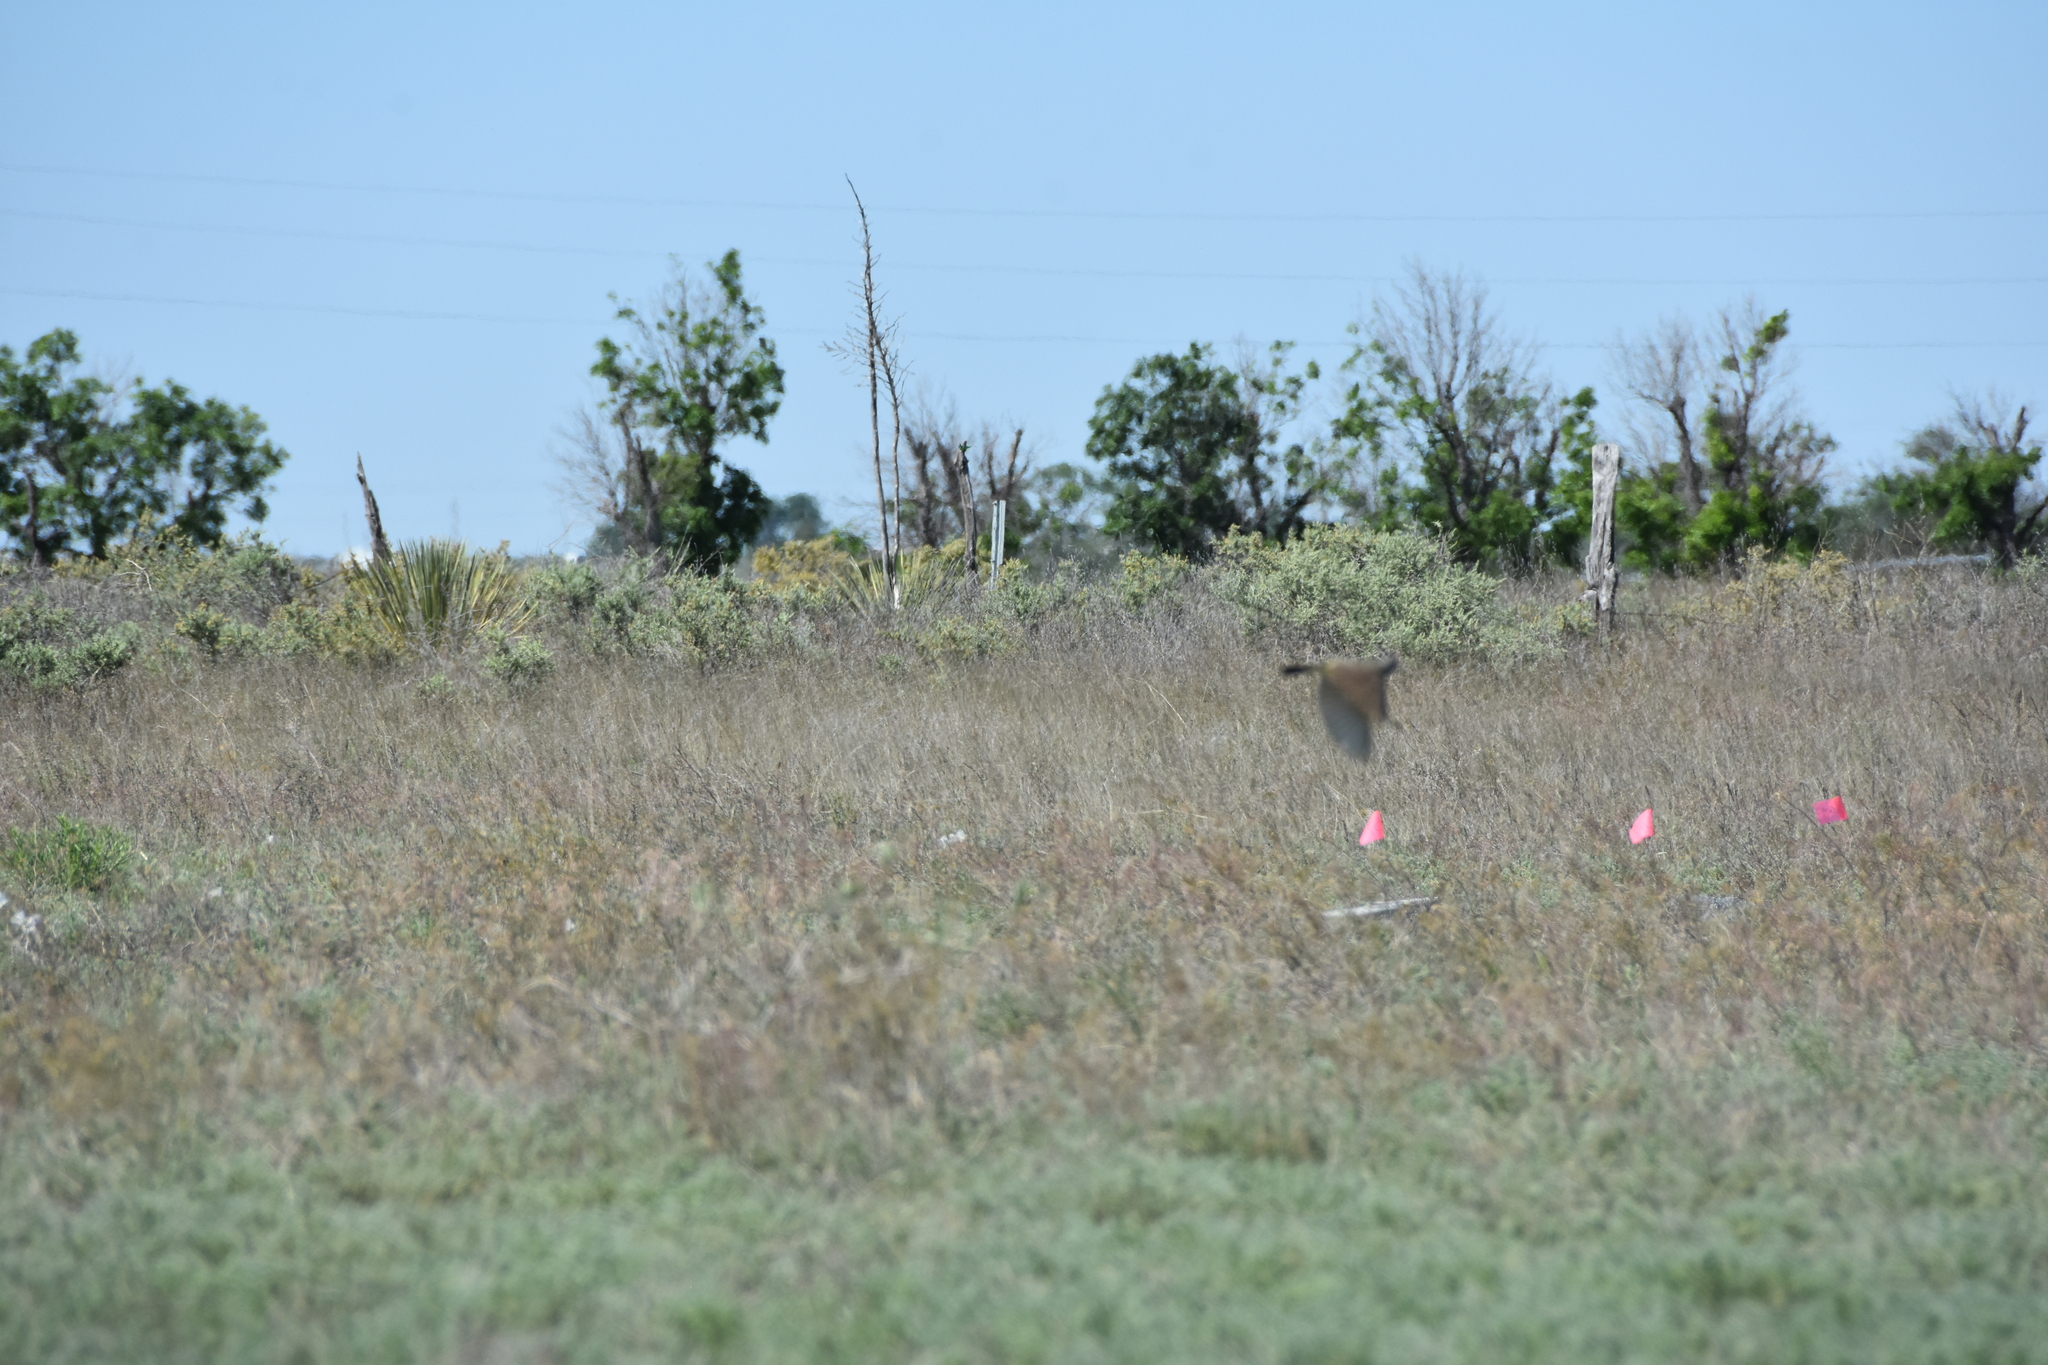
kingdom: Animalia
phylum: Chordata
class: Aves
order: Passeriformes
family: Tyrannidae
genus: Tyrannus
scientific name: Tyrannus verticalis
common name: Western kingbird
